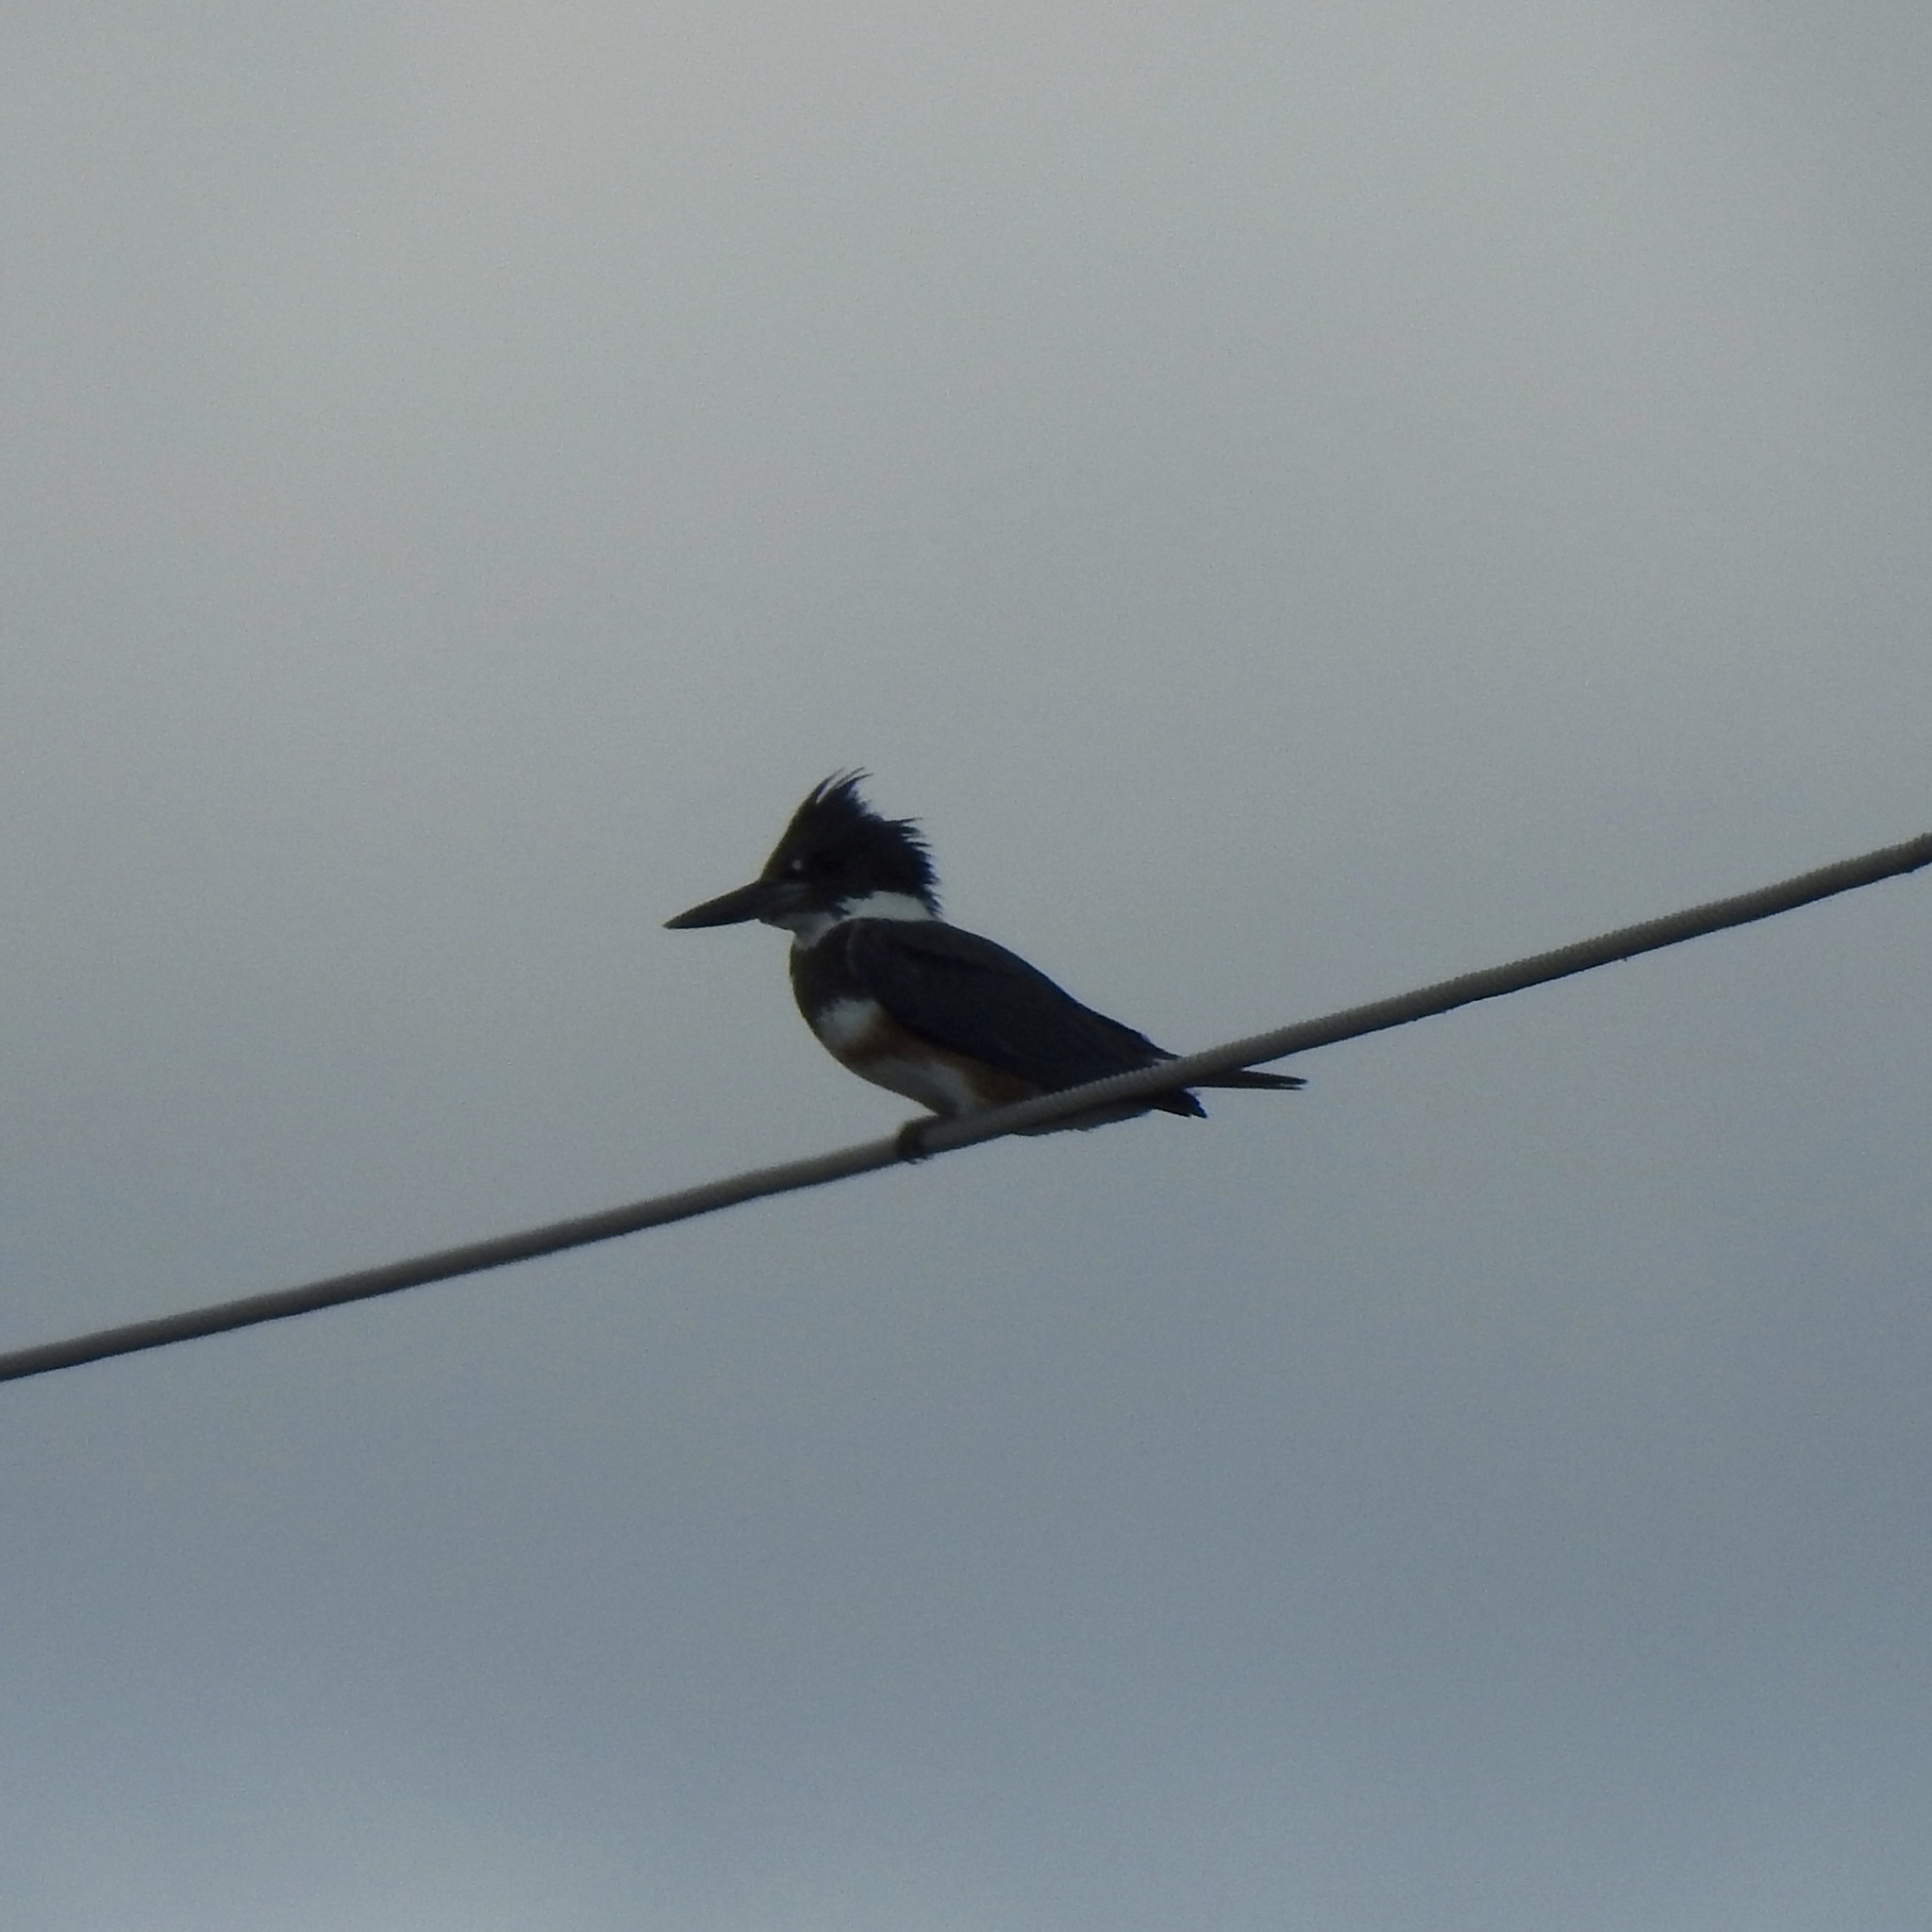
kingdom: Animalia
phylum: Chordata
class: Aves
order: Coraciiformes
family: Alcedinidae
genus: Megaceryle
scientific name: Megaceryle alcyon
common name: Belted kingfisher
